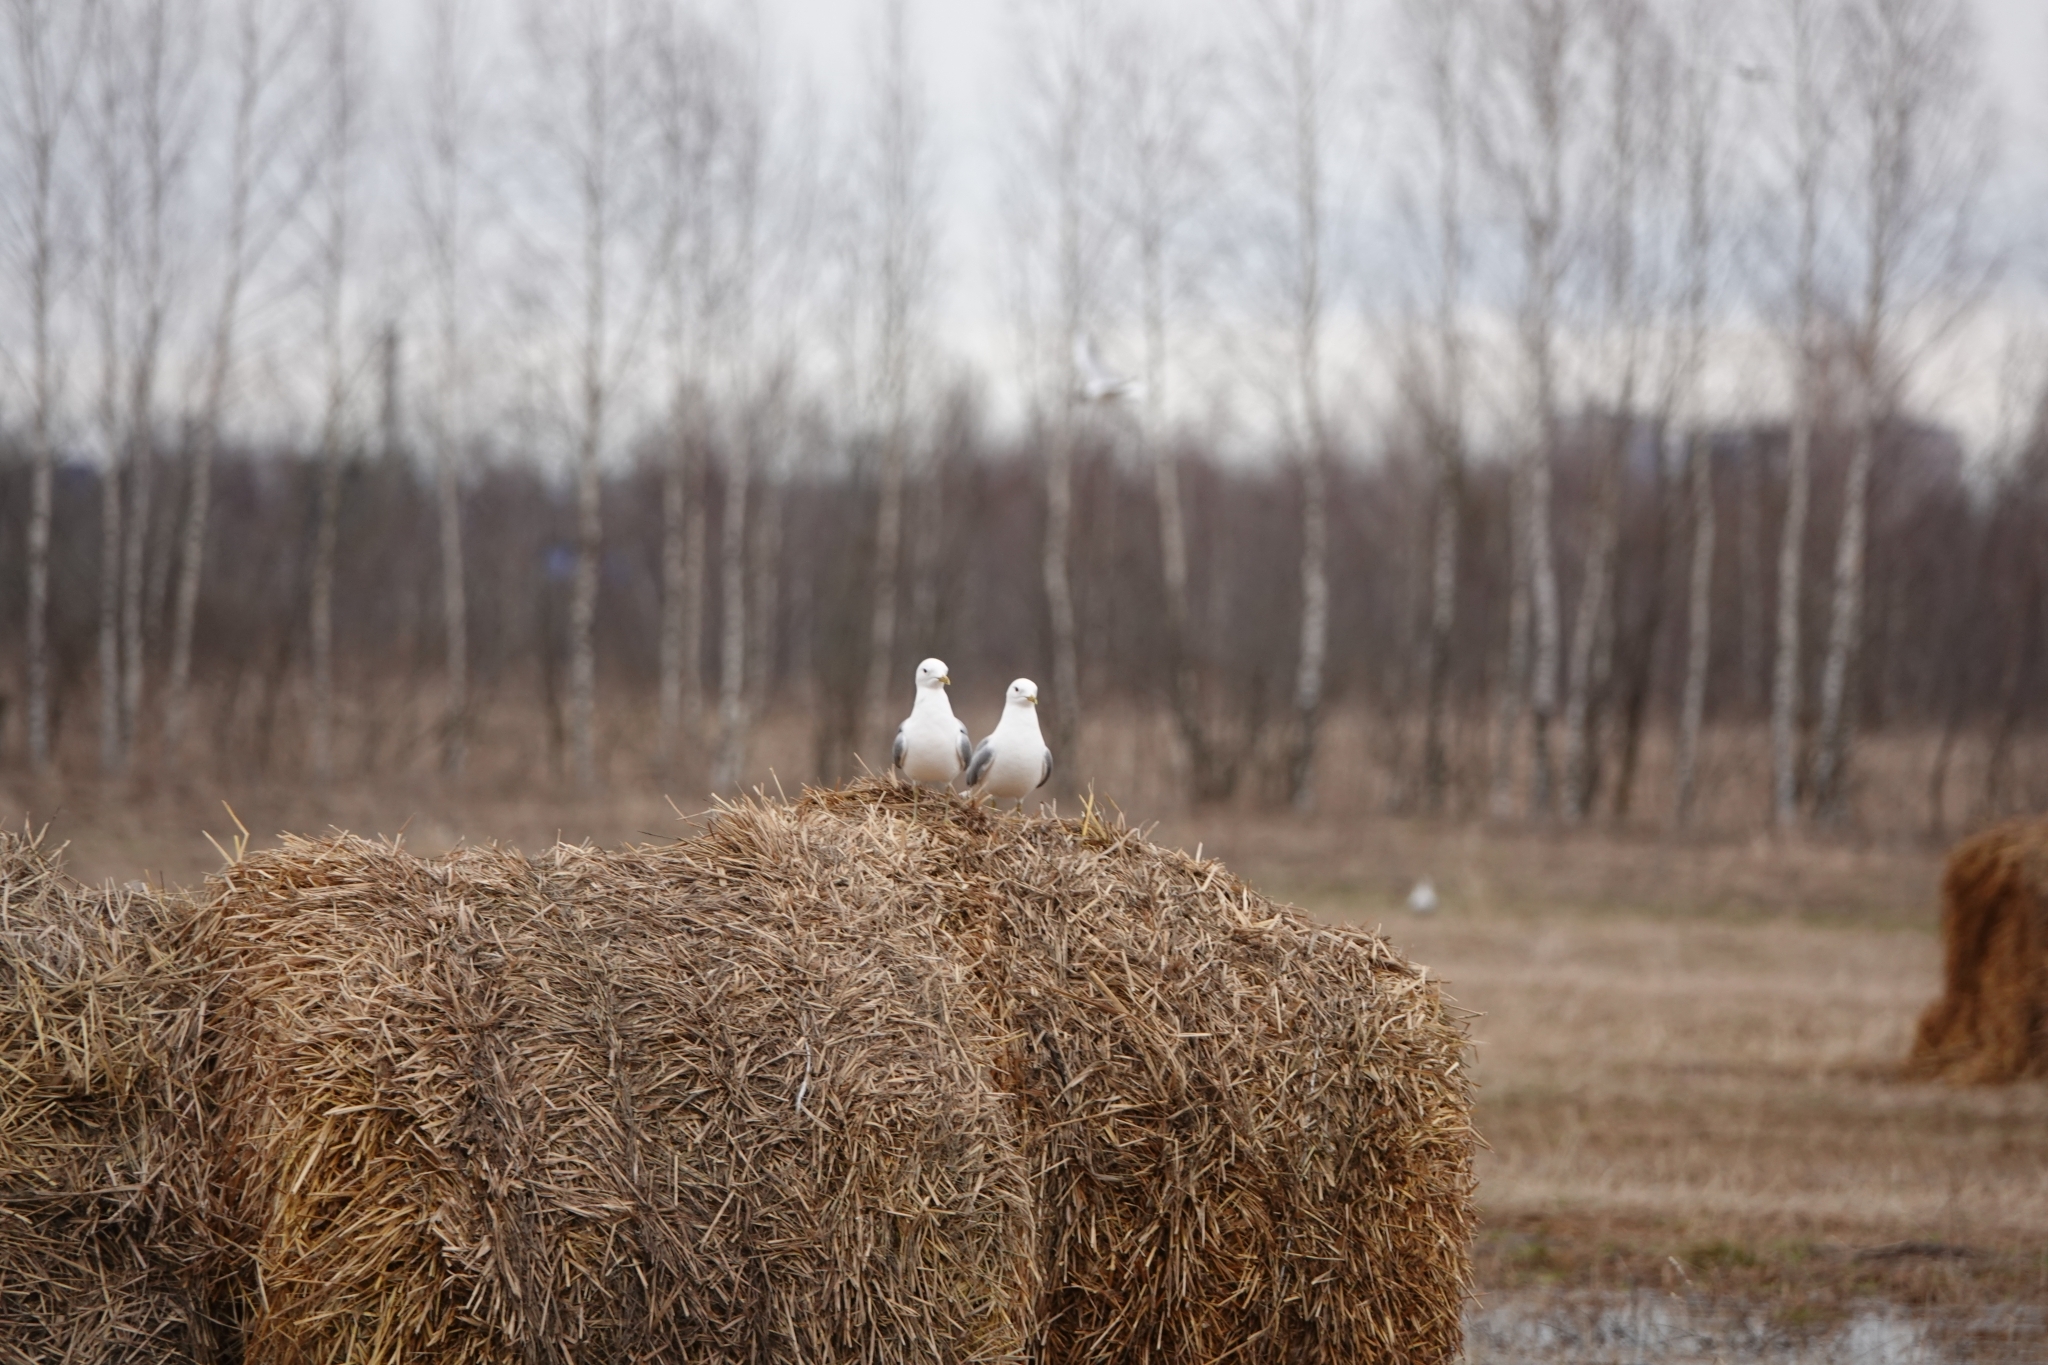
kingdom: Animalia
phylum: Chordata
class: Aves
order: Charadriiformes
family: Laridae
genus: Larus
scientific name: Larus canus
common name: Mew gull
